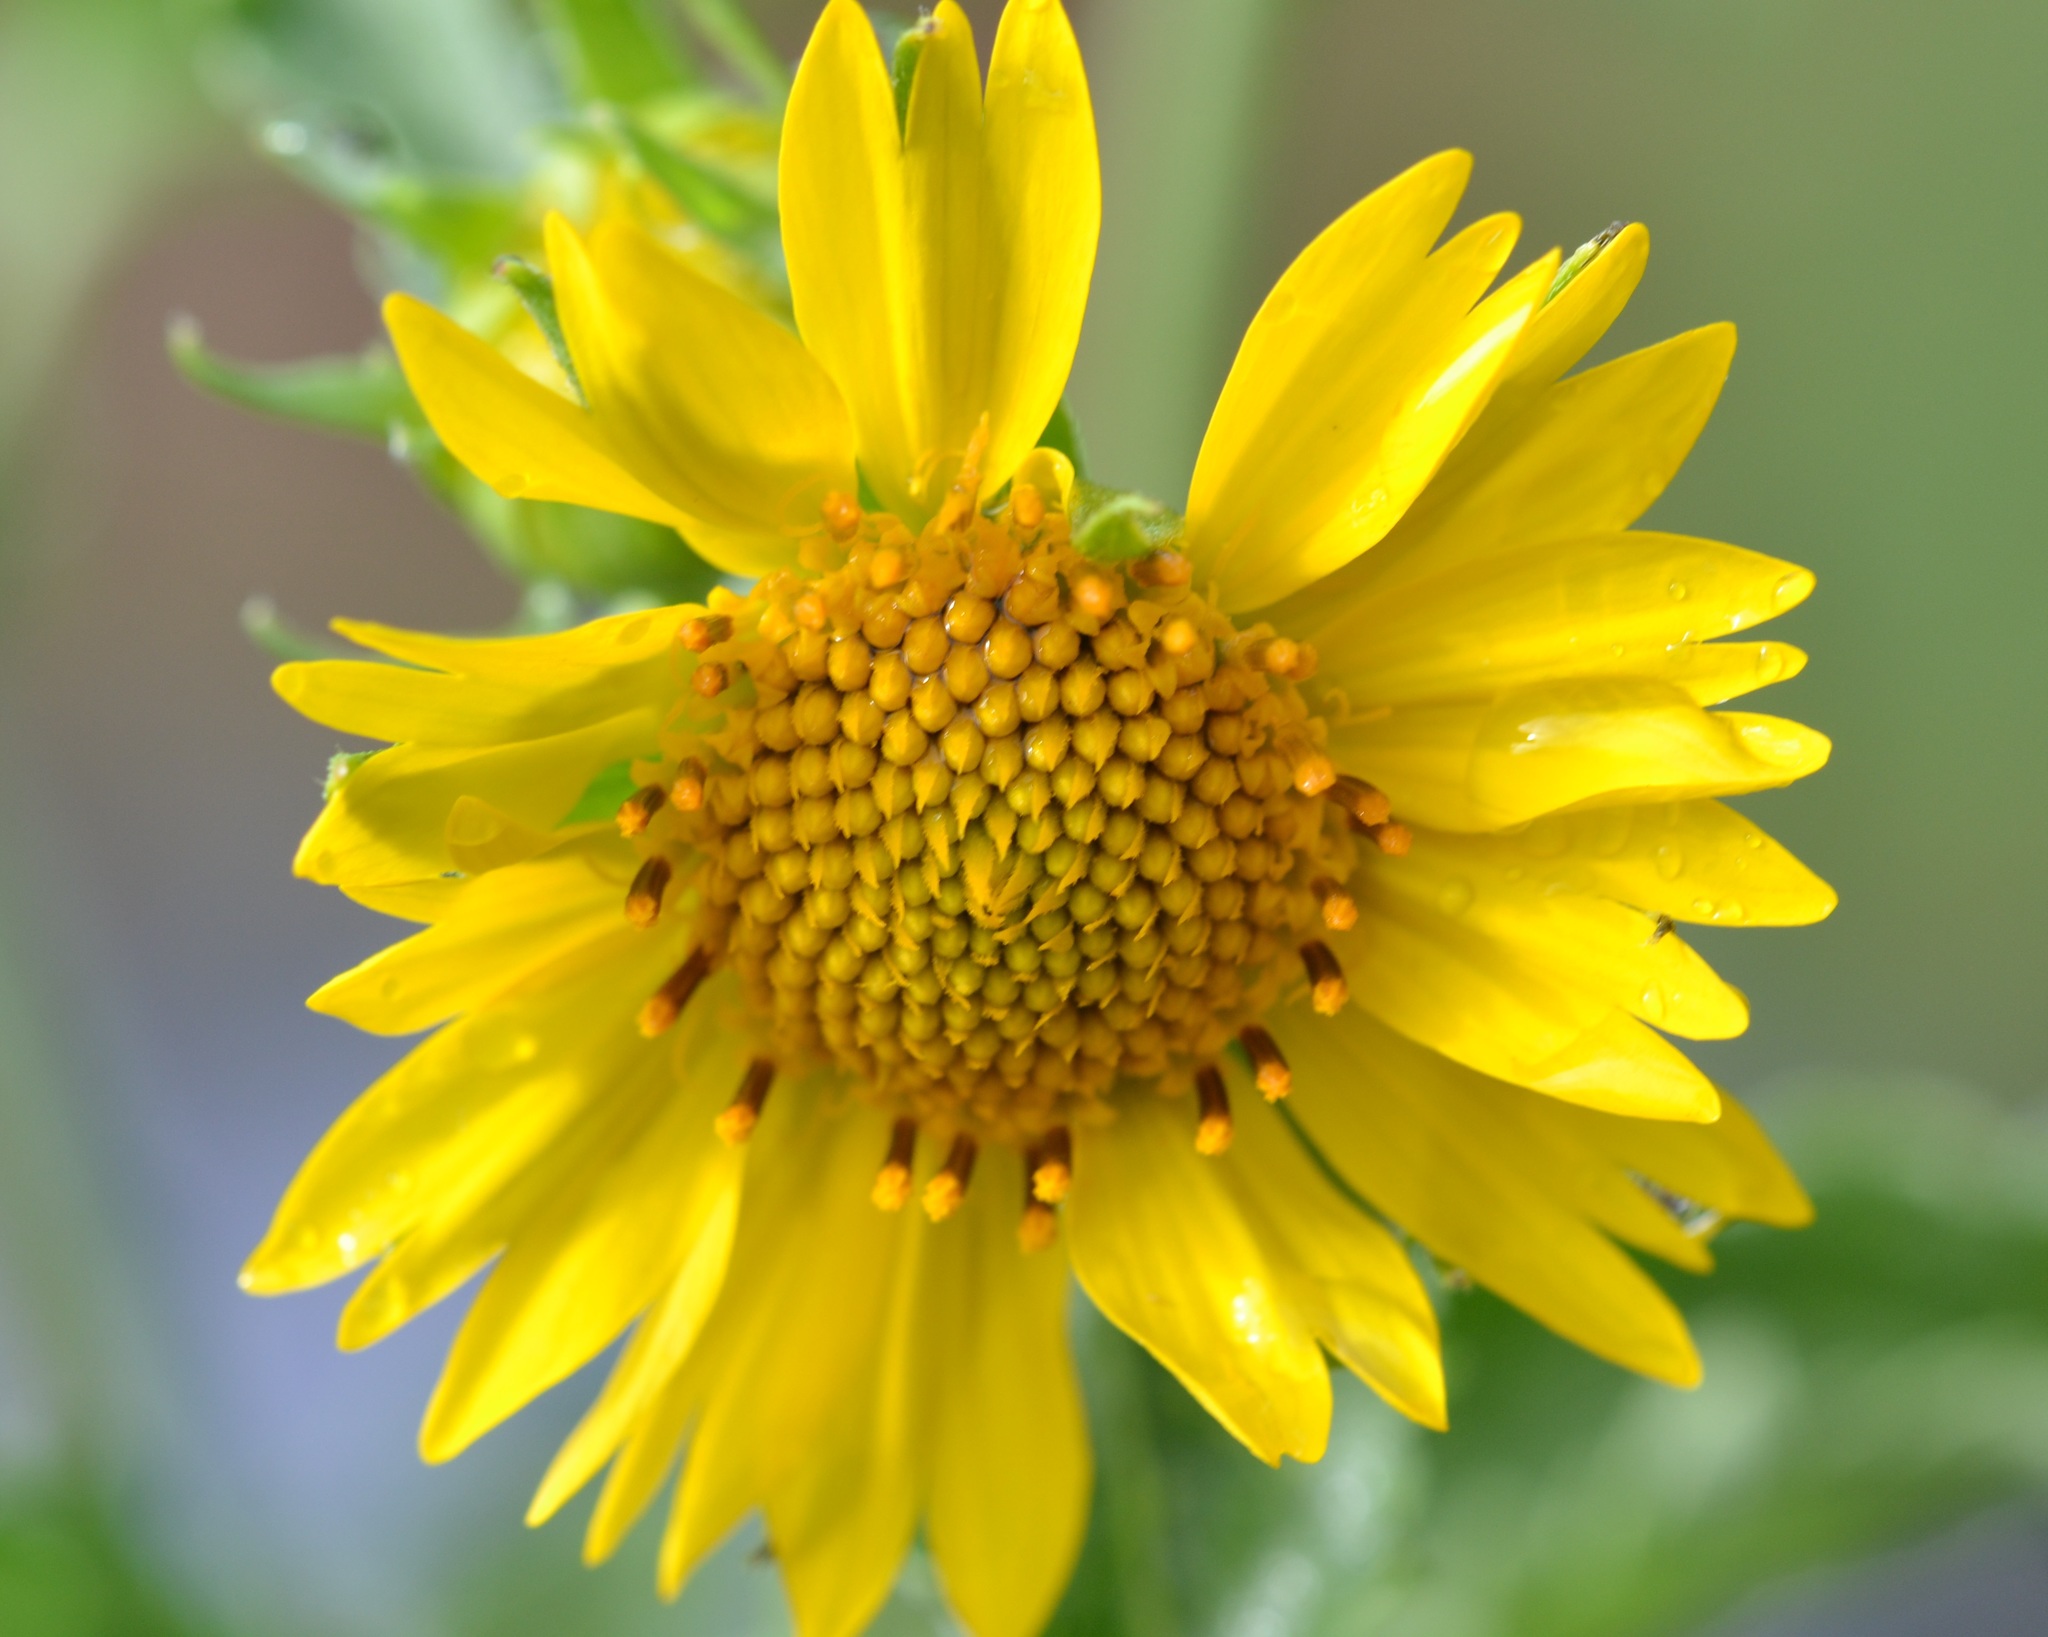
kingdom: Plantae
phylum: Tracheophyta
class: Magnoliopsida
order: Asterales
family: Asteraceae
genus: Verbesina
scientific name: Verbesina encelioides
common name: Golden crownbeard
